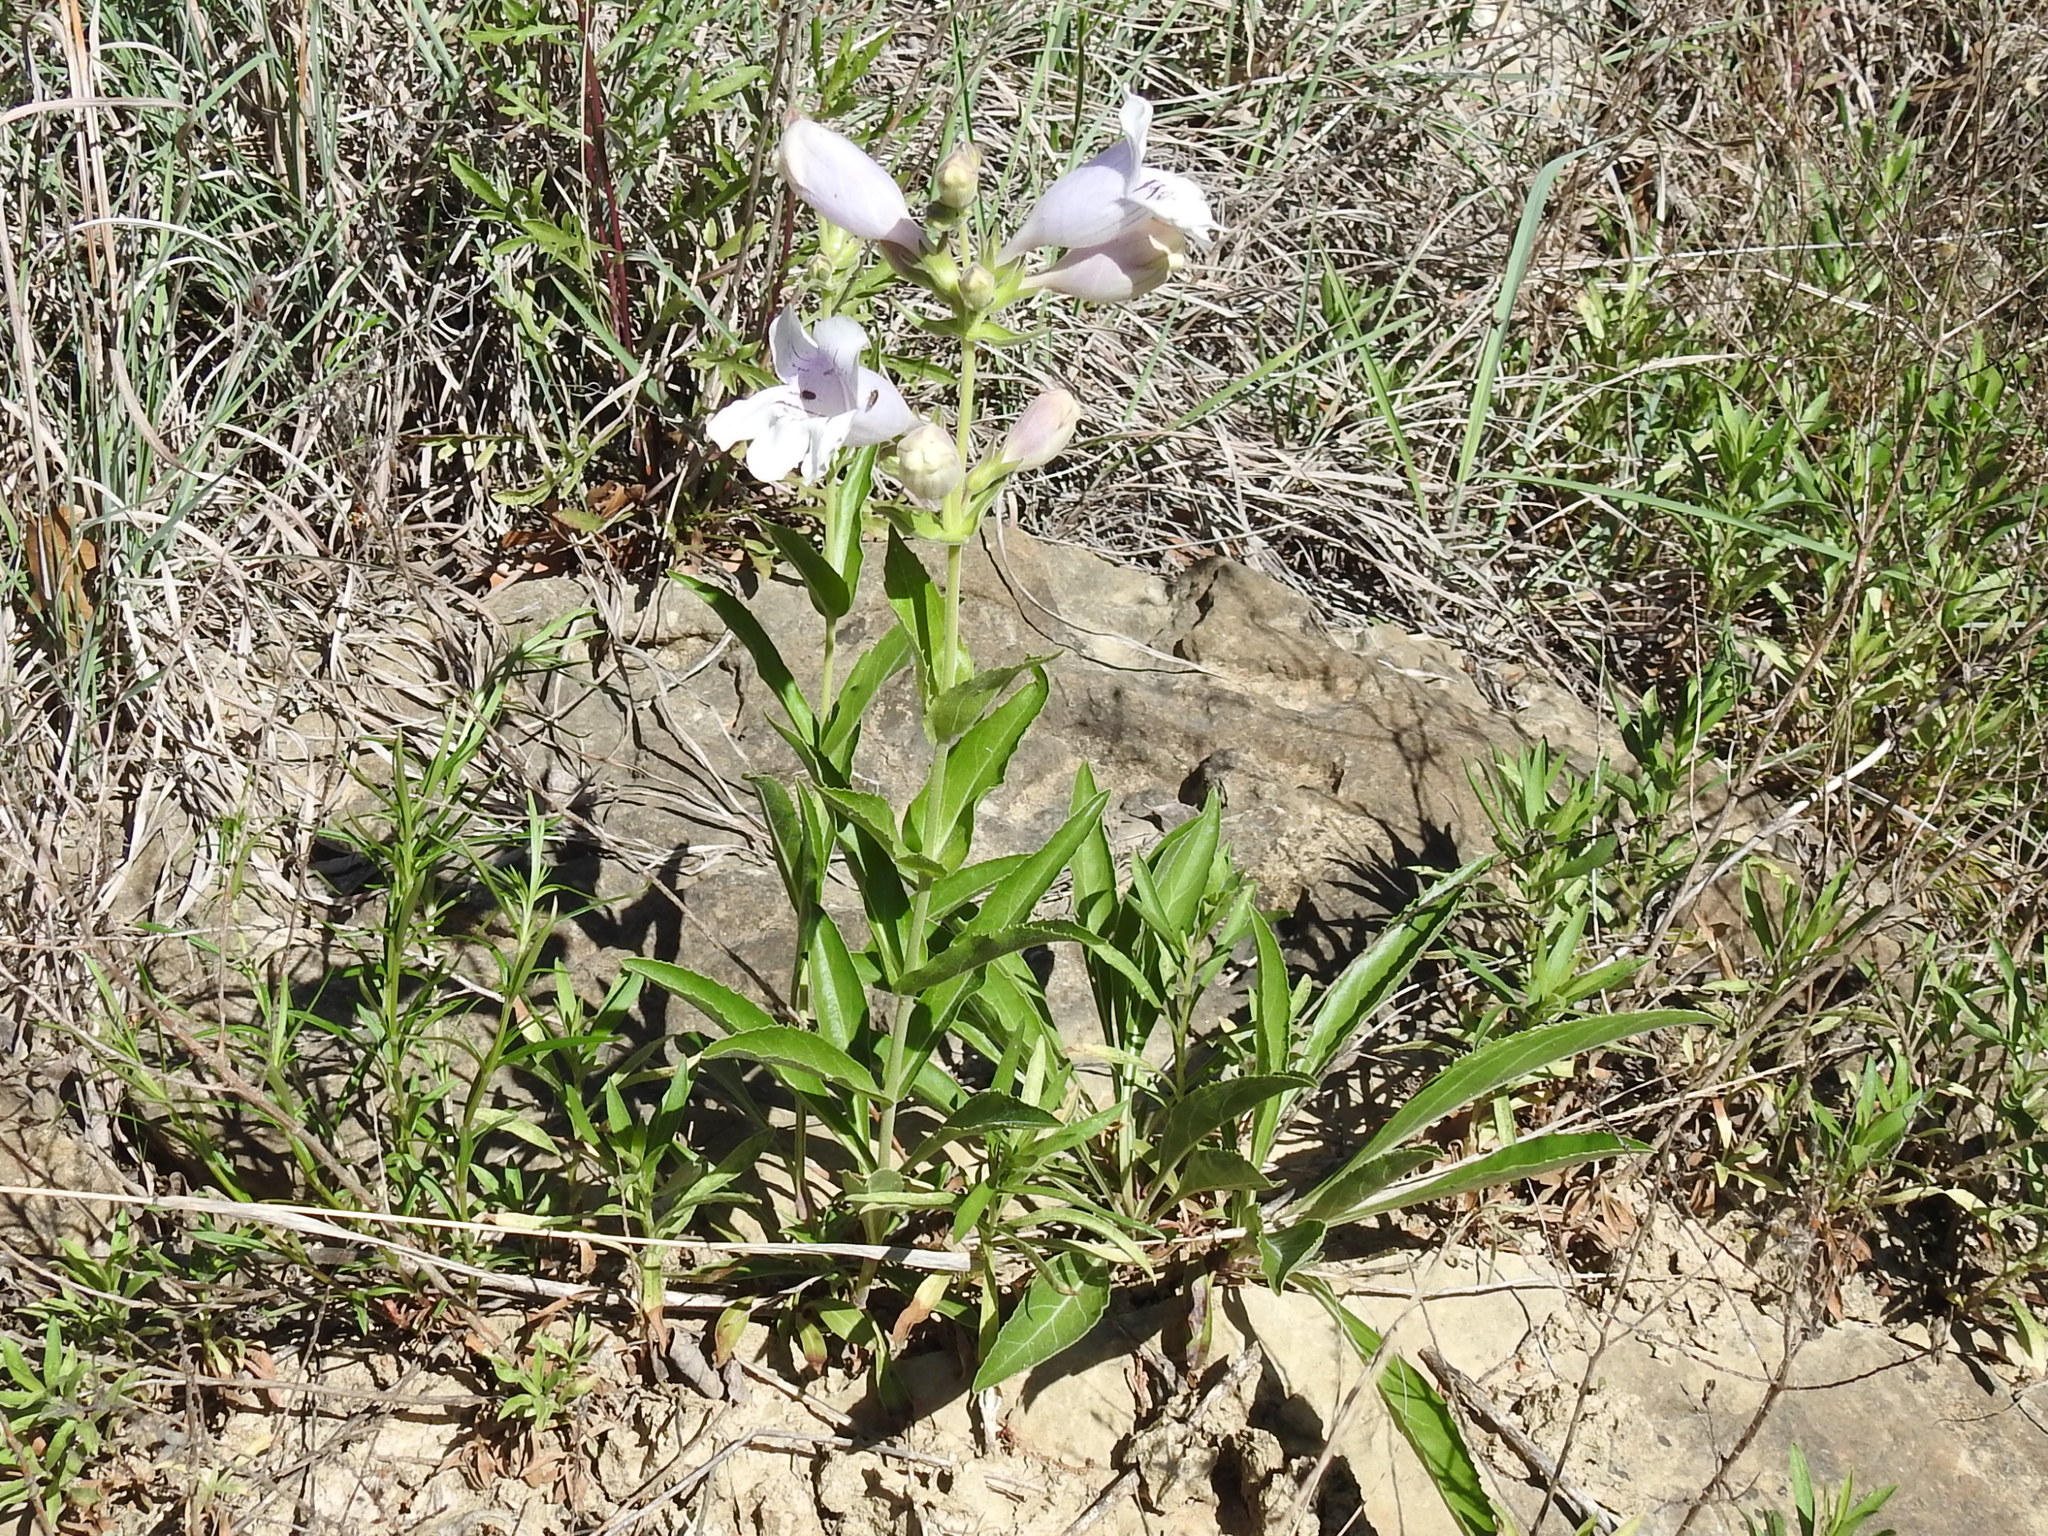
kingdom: Plantae
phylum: Tracheophyta
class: Magnoliopsida
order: Lamiales
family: Plantaginaceae
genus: Penstemon
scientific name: Penstemon cobaea
